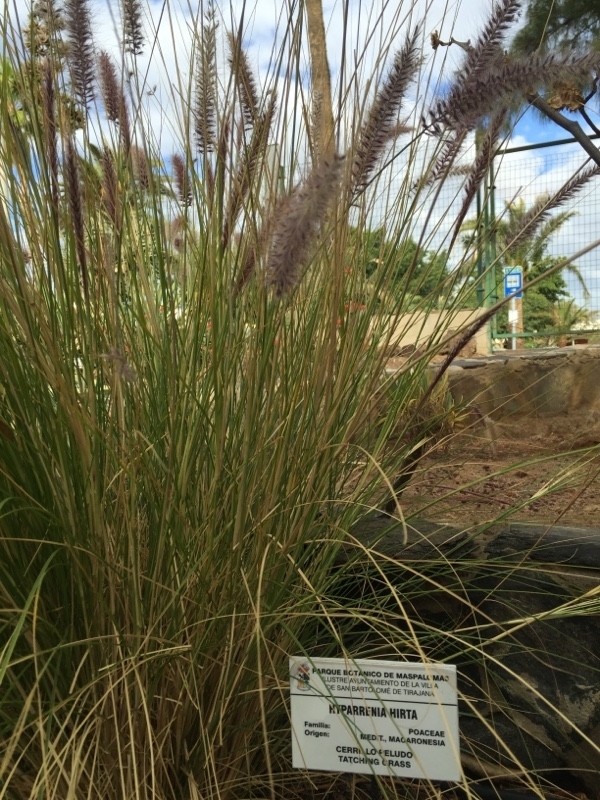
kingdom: Plantae
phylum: Tracheophyta
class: Liliopsida
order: Poales
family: Poaceae
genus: Cenchrus
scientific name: Cenchrus setaceus
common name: Crimson fountaingrass
